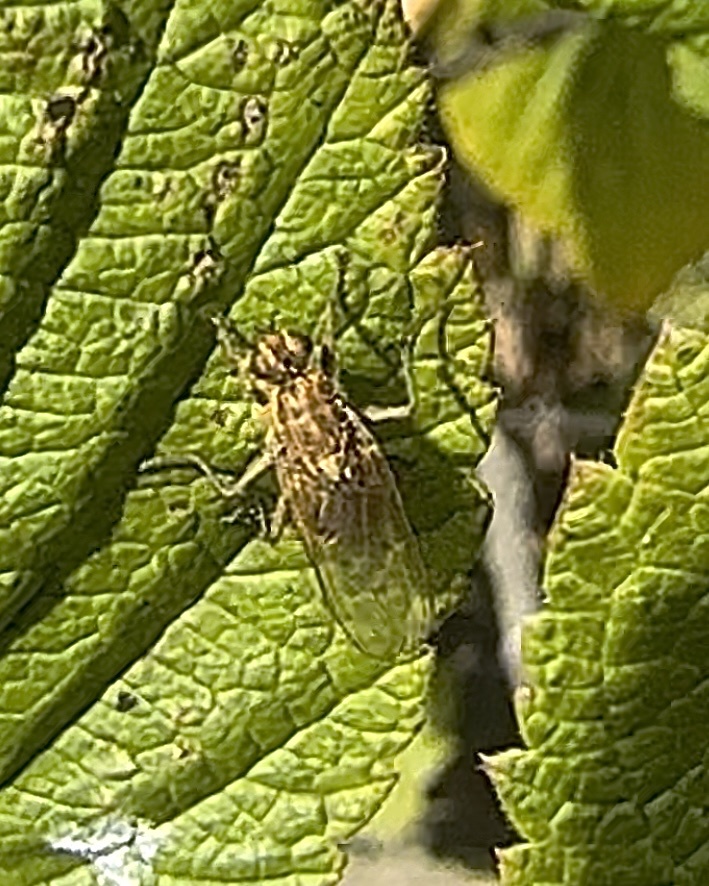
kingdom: Animalia
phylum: Arthropoda
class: Insecta
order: Diptera
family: Scathophagidae
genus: Scathophaga
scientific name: Scathophaga stercoraria
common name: Yellow dung fly
